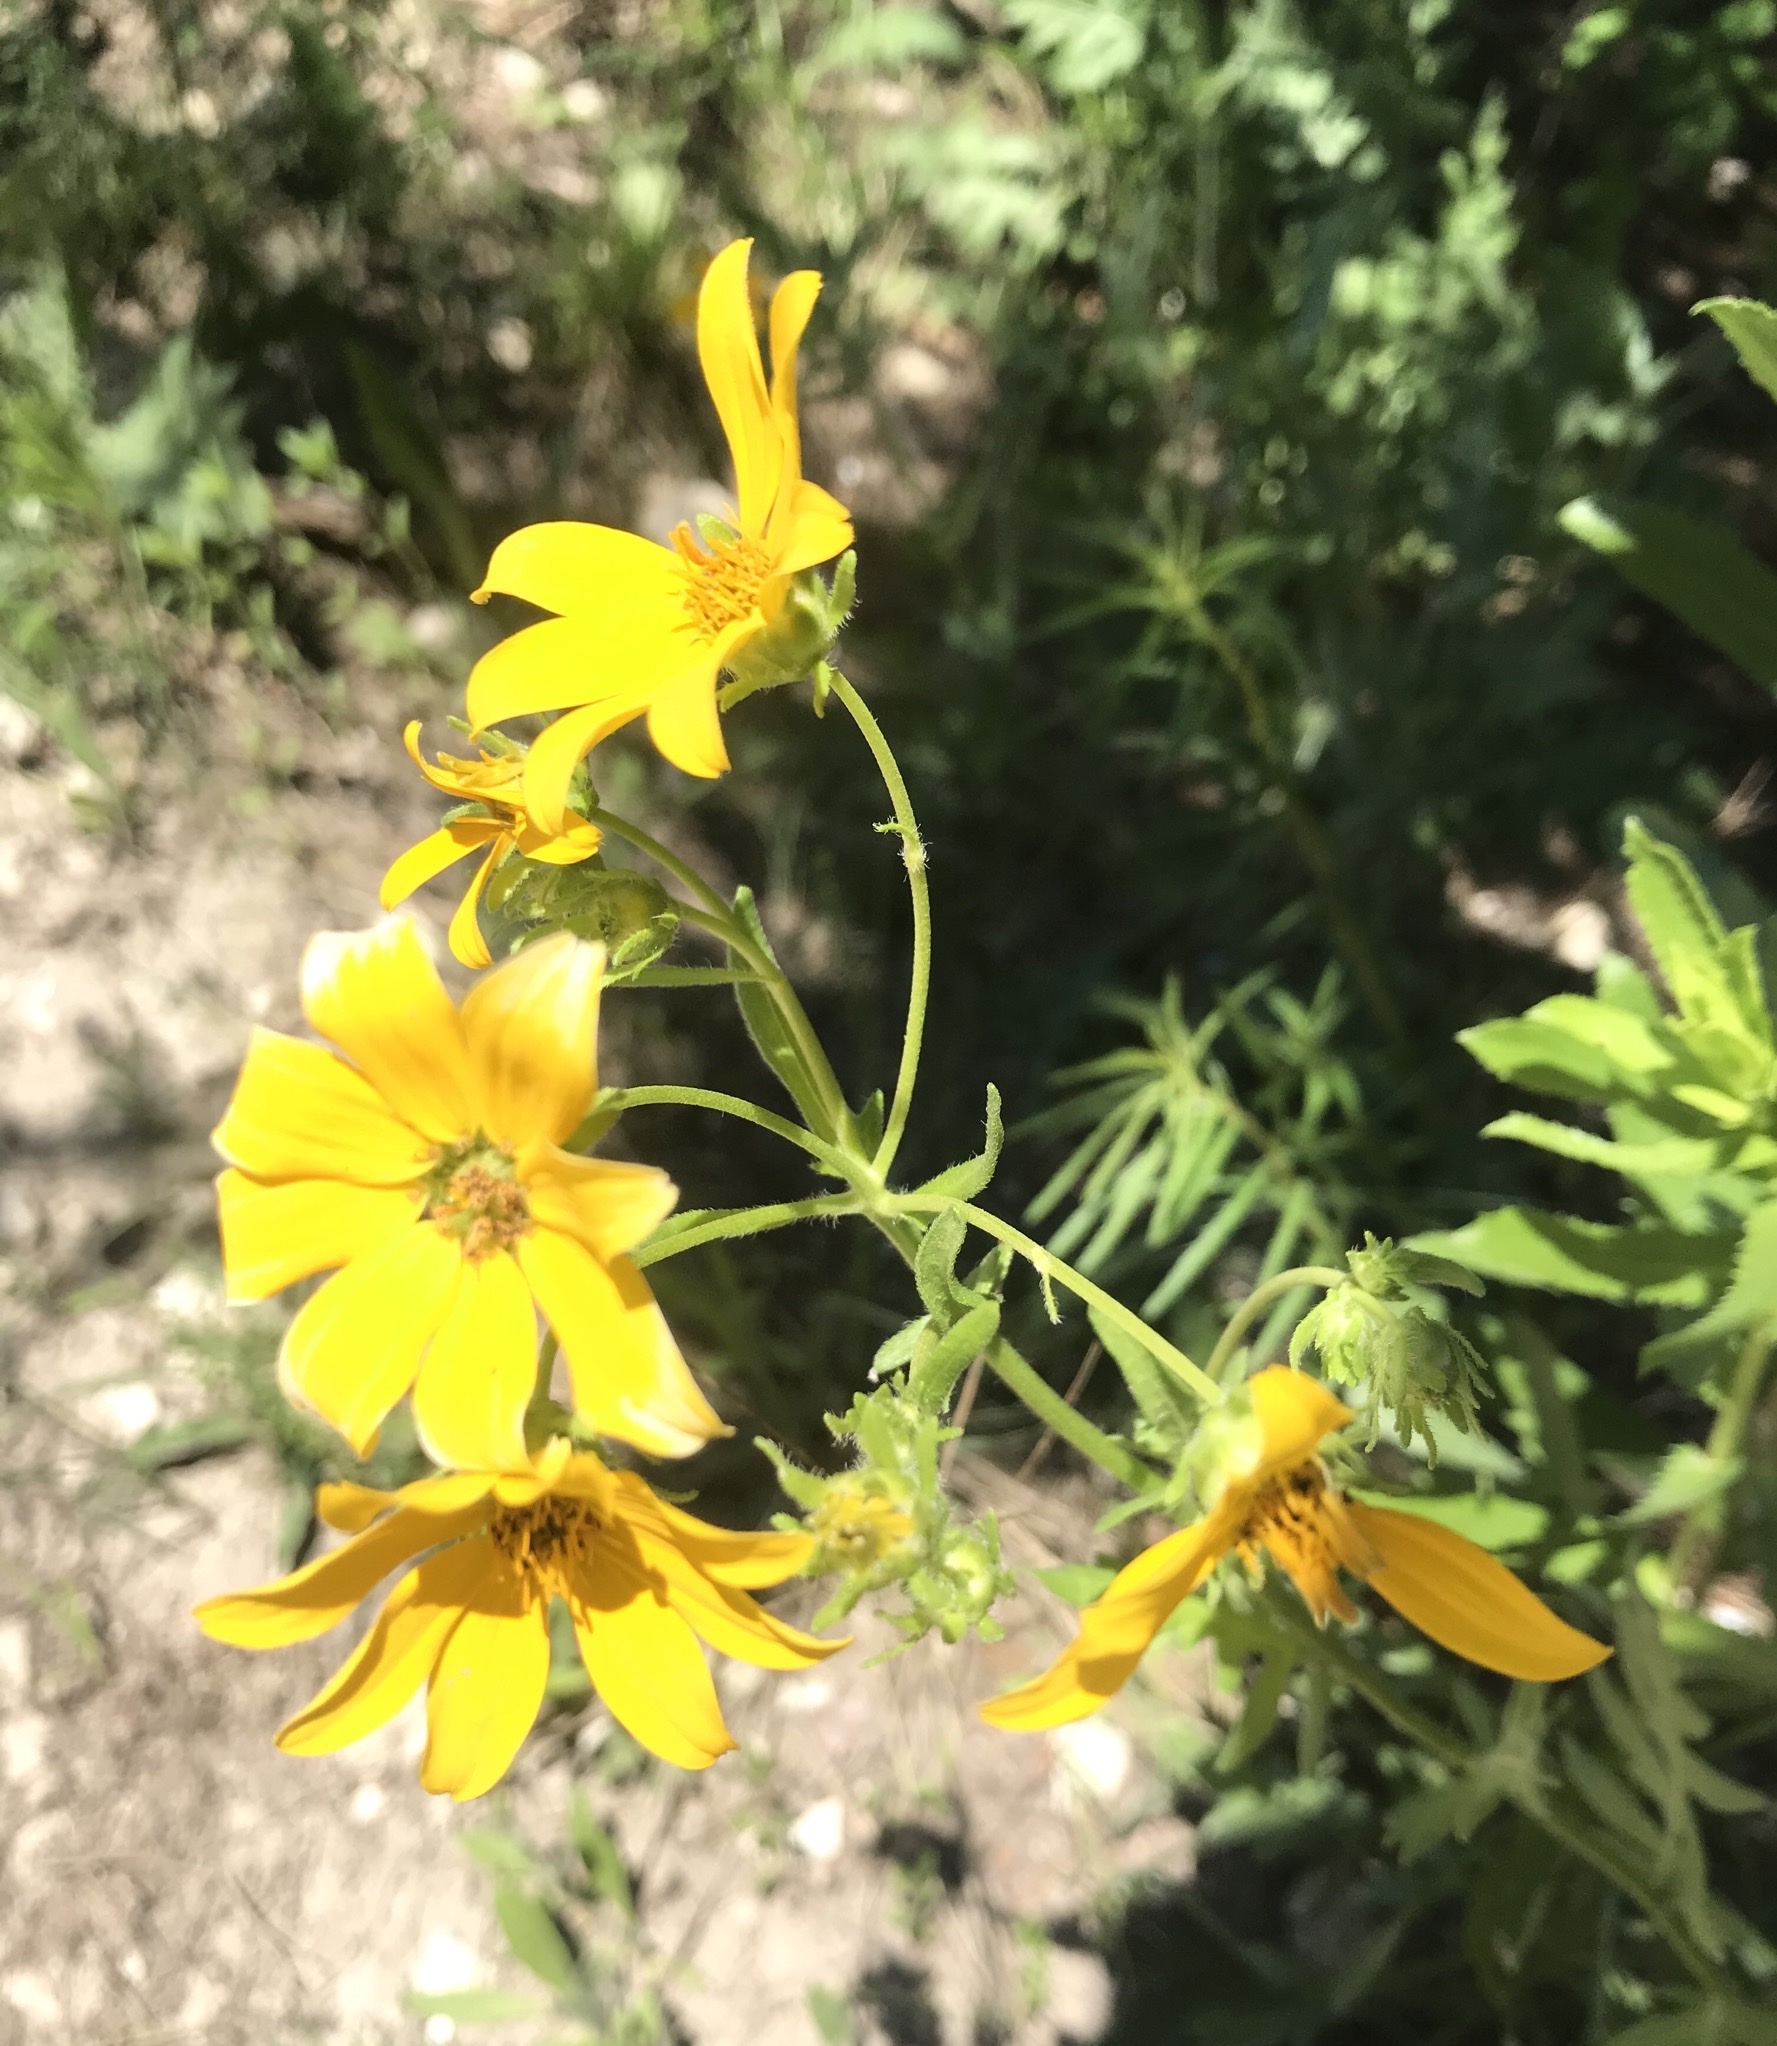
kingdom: Plantae
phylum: Tracheophyta
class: Magnoliopsida
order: Asterales
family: Asteraceae
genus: Engelmannia
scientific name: Engelmannia peristenia
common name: Engelmann's daisy
